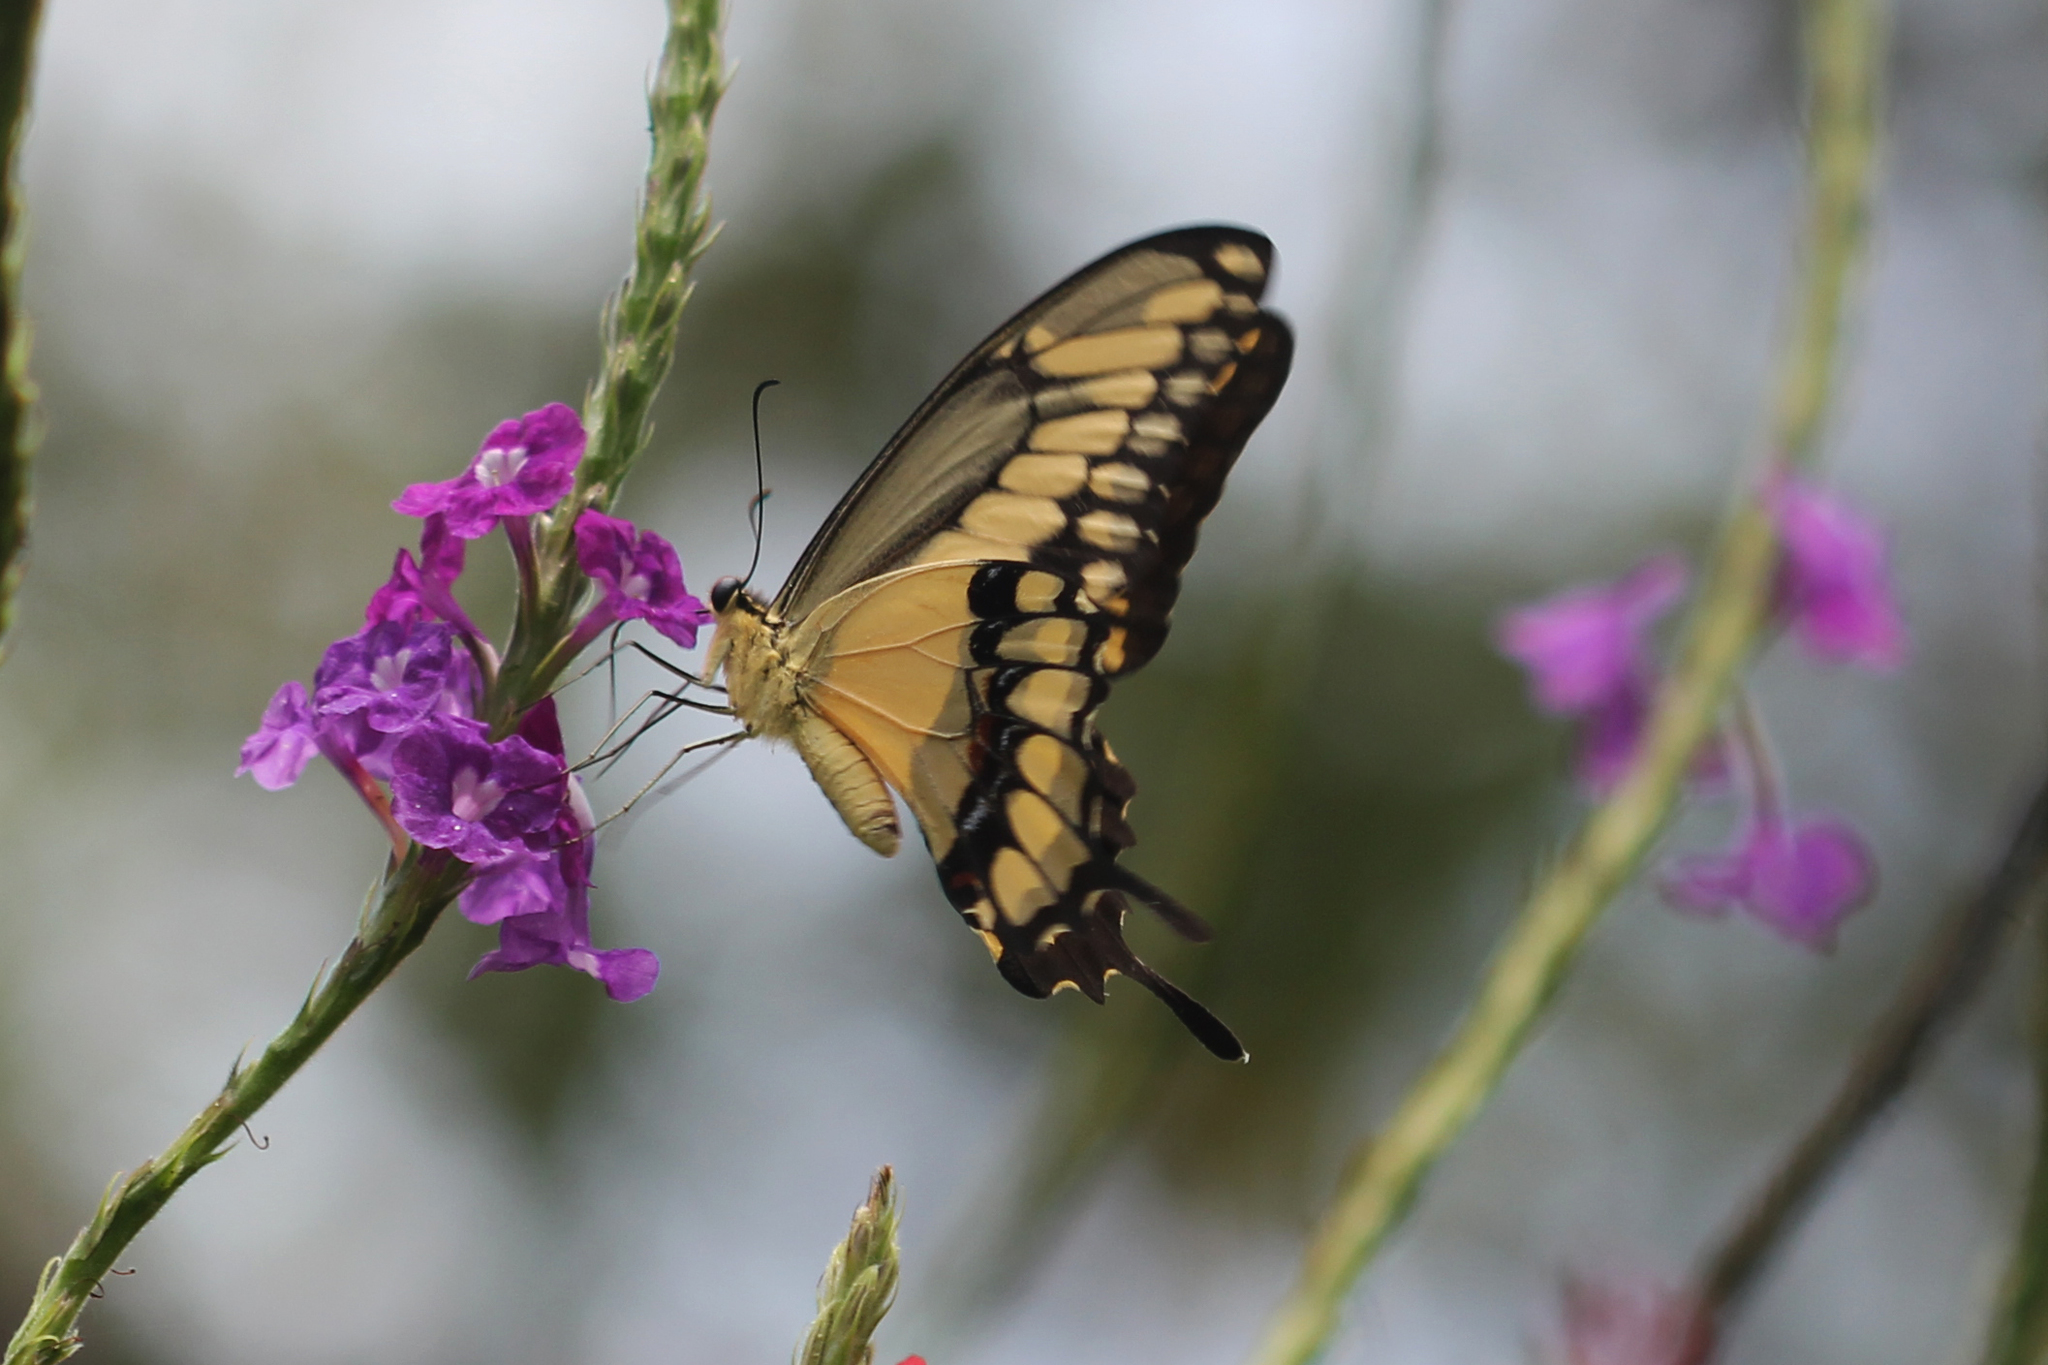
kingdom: Animalia
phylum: Arthropoda
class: Insecta
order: Lepidoptera
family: Papilionidae
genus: Papilio
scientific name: Papilio rumiko
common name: Western giant swallowtail
